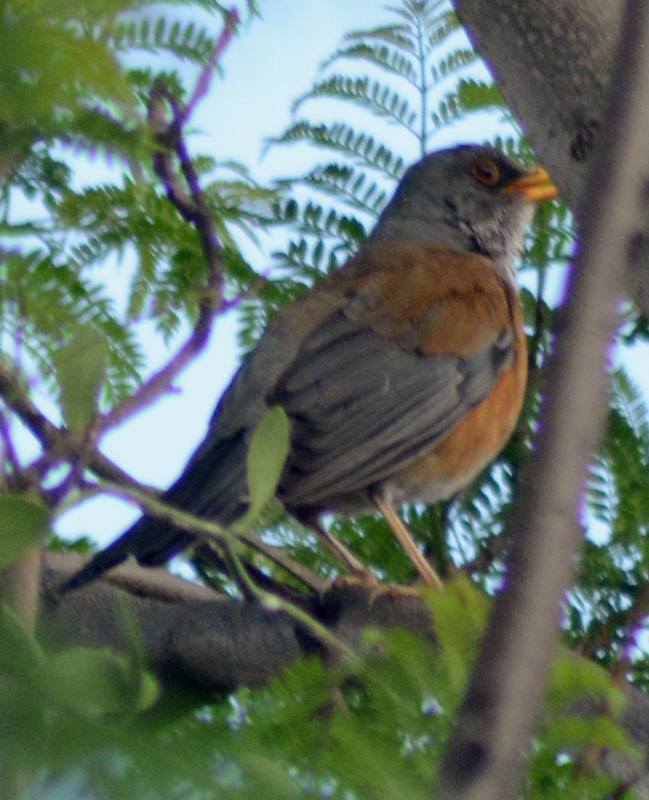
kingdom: Animalia
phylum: Chordata
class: Aves
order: Passeriformes
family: Turdidae
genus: Turdus
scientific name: Turdus rufopalliatus
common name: Rufous-backed robin
